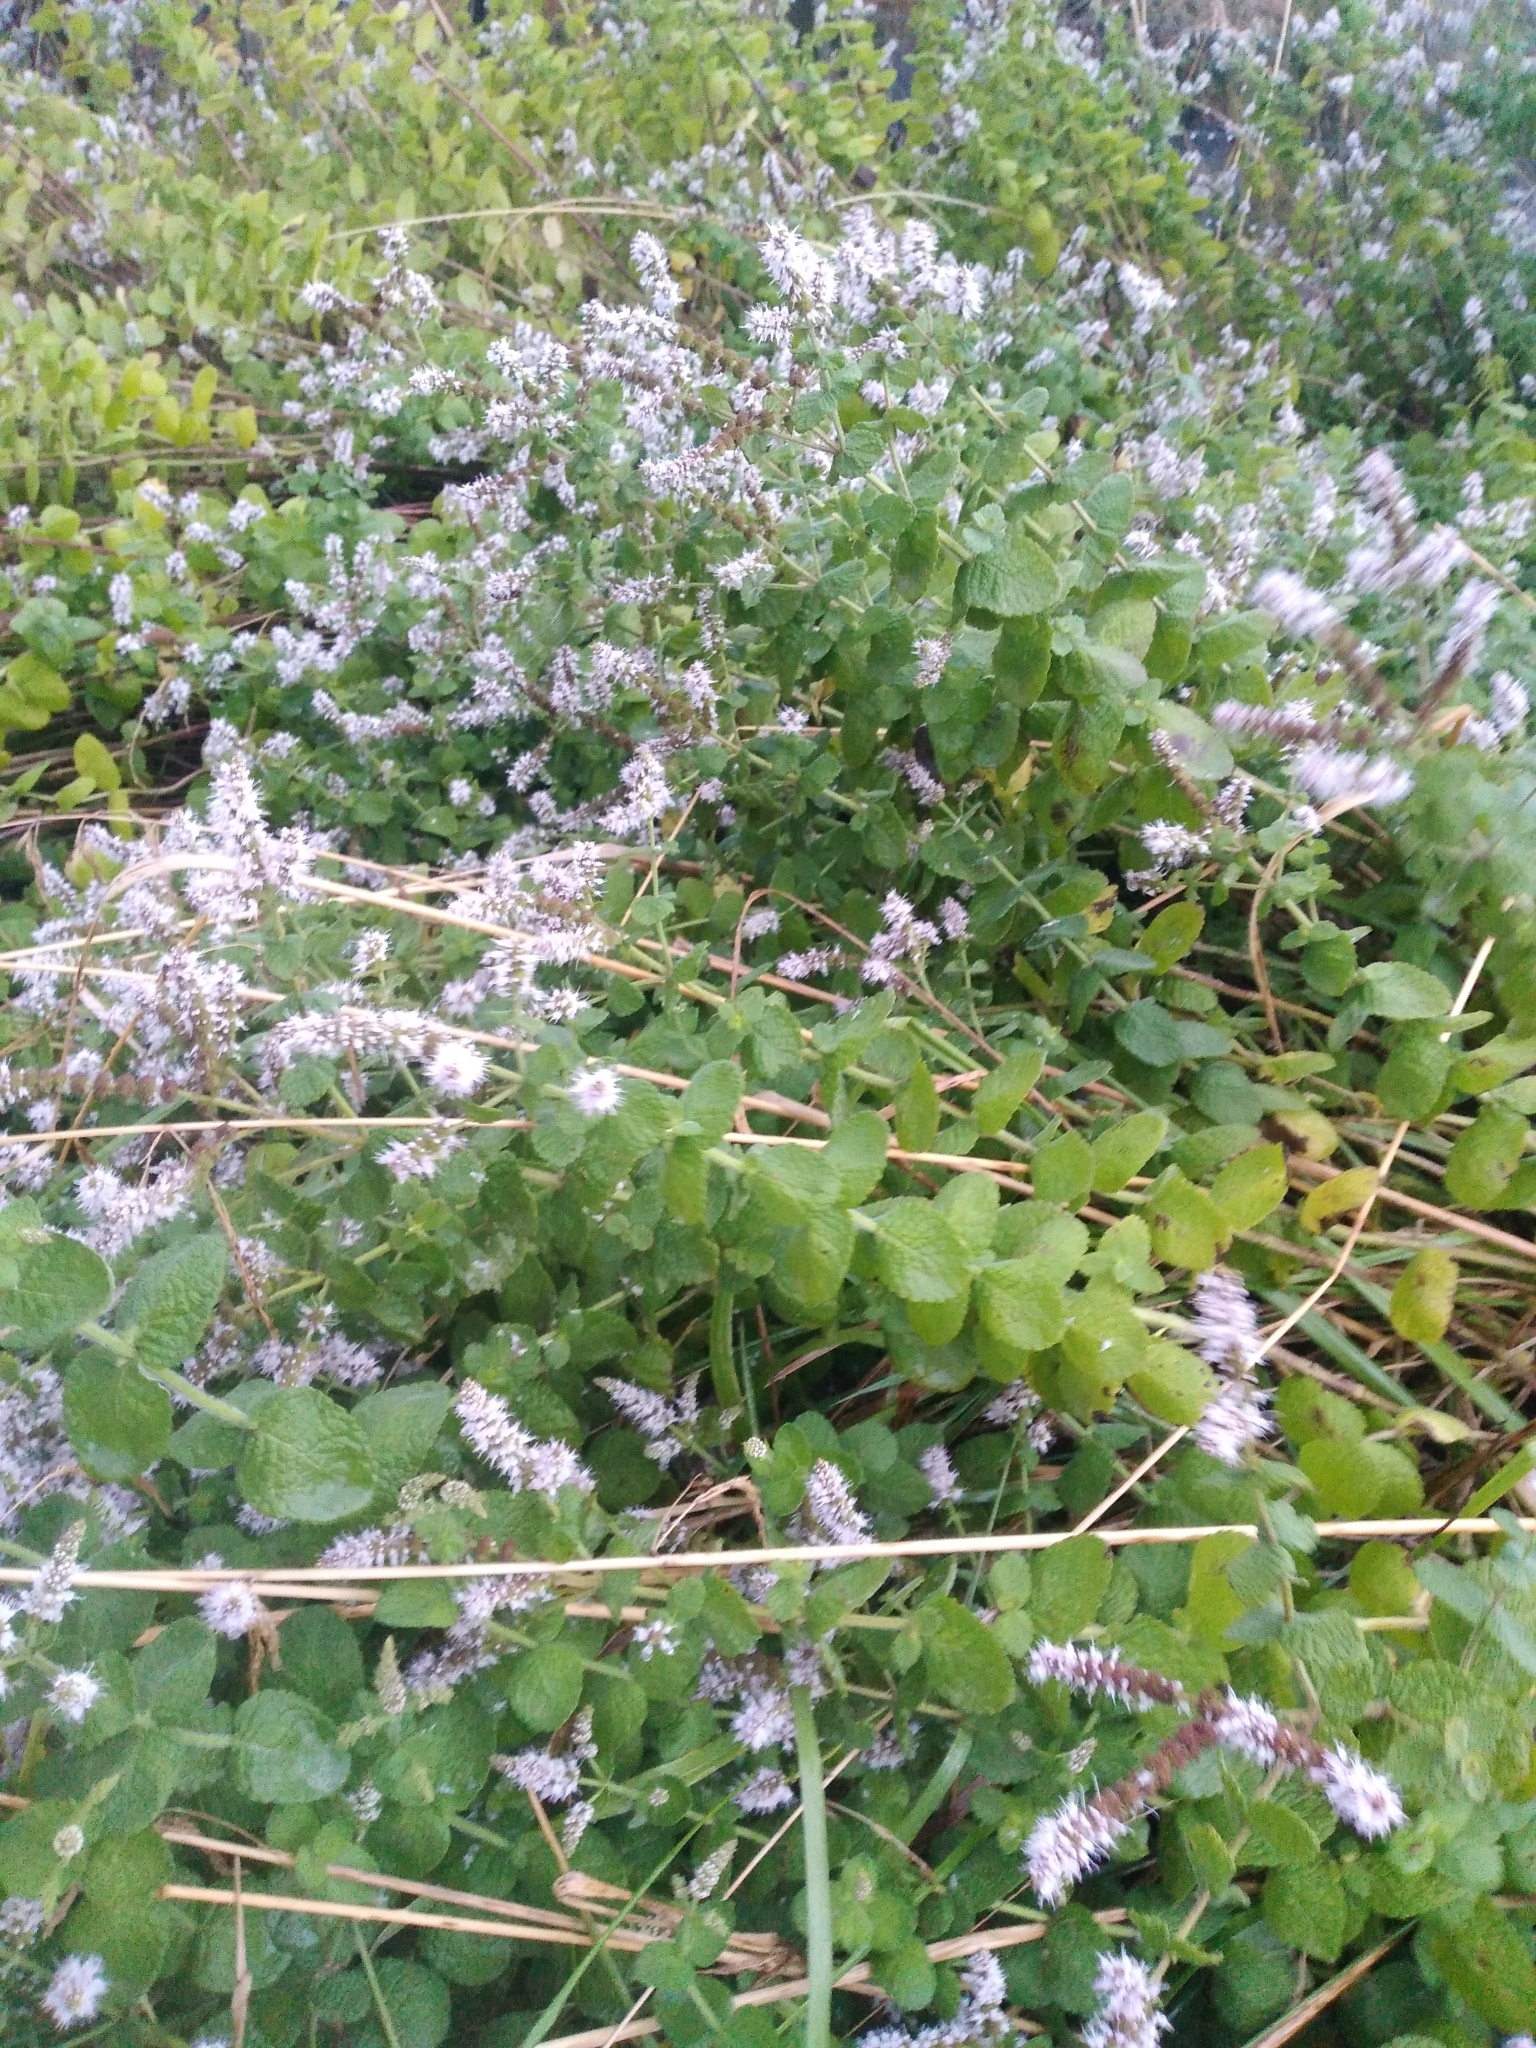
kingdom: Plantae
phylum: Tracheophyta
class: Magnoliopsida
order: Lamiales
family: Lamiaceae
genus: Mentha
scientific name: Mentha suaveolens
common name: Apple mint
